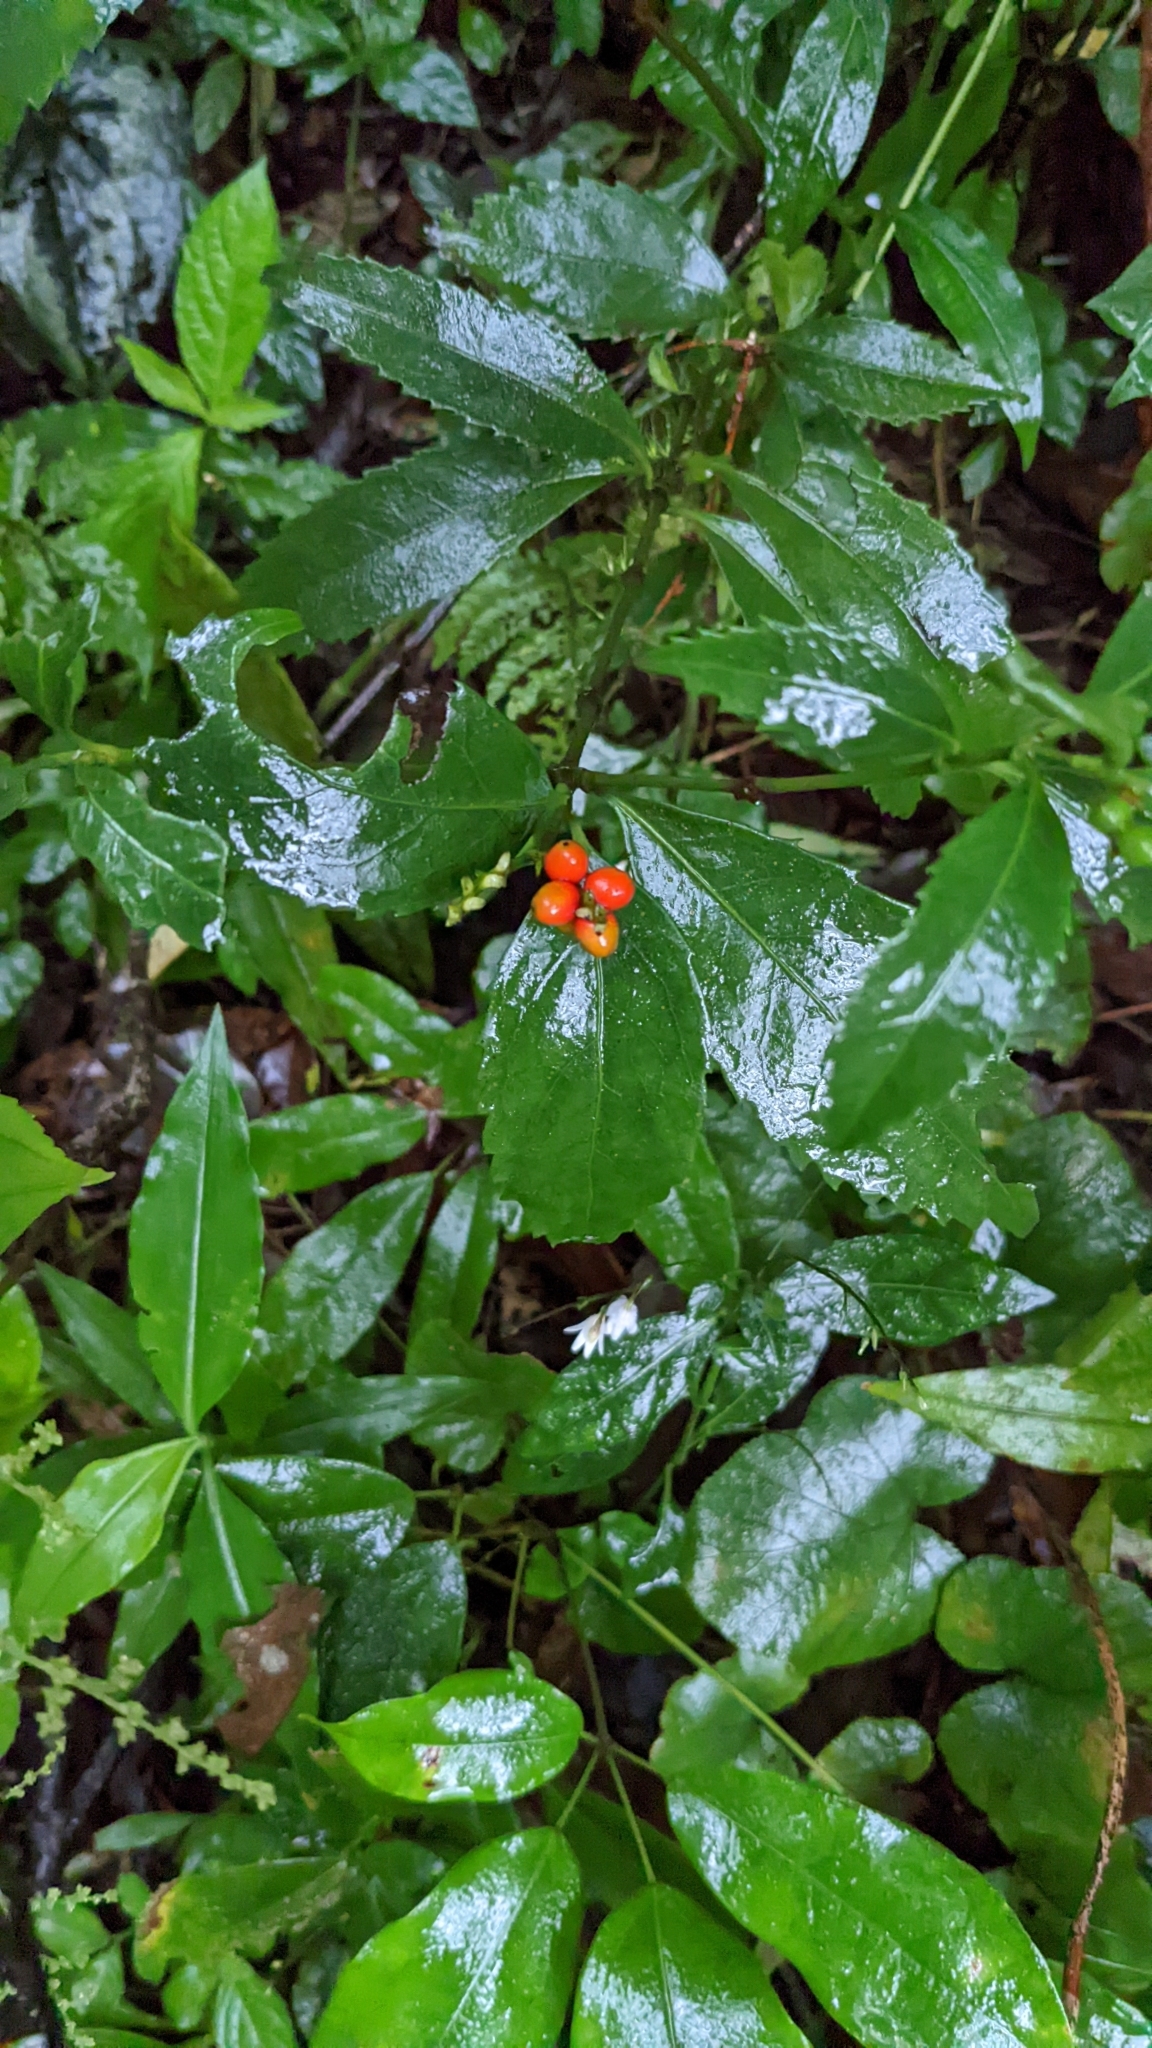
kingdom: Plantae
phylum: Tracheophyta
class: Magnoliopsida
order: Chloranthales
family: Chloranthaceae
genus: Sarcandra
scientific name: Sarcandra glabra
